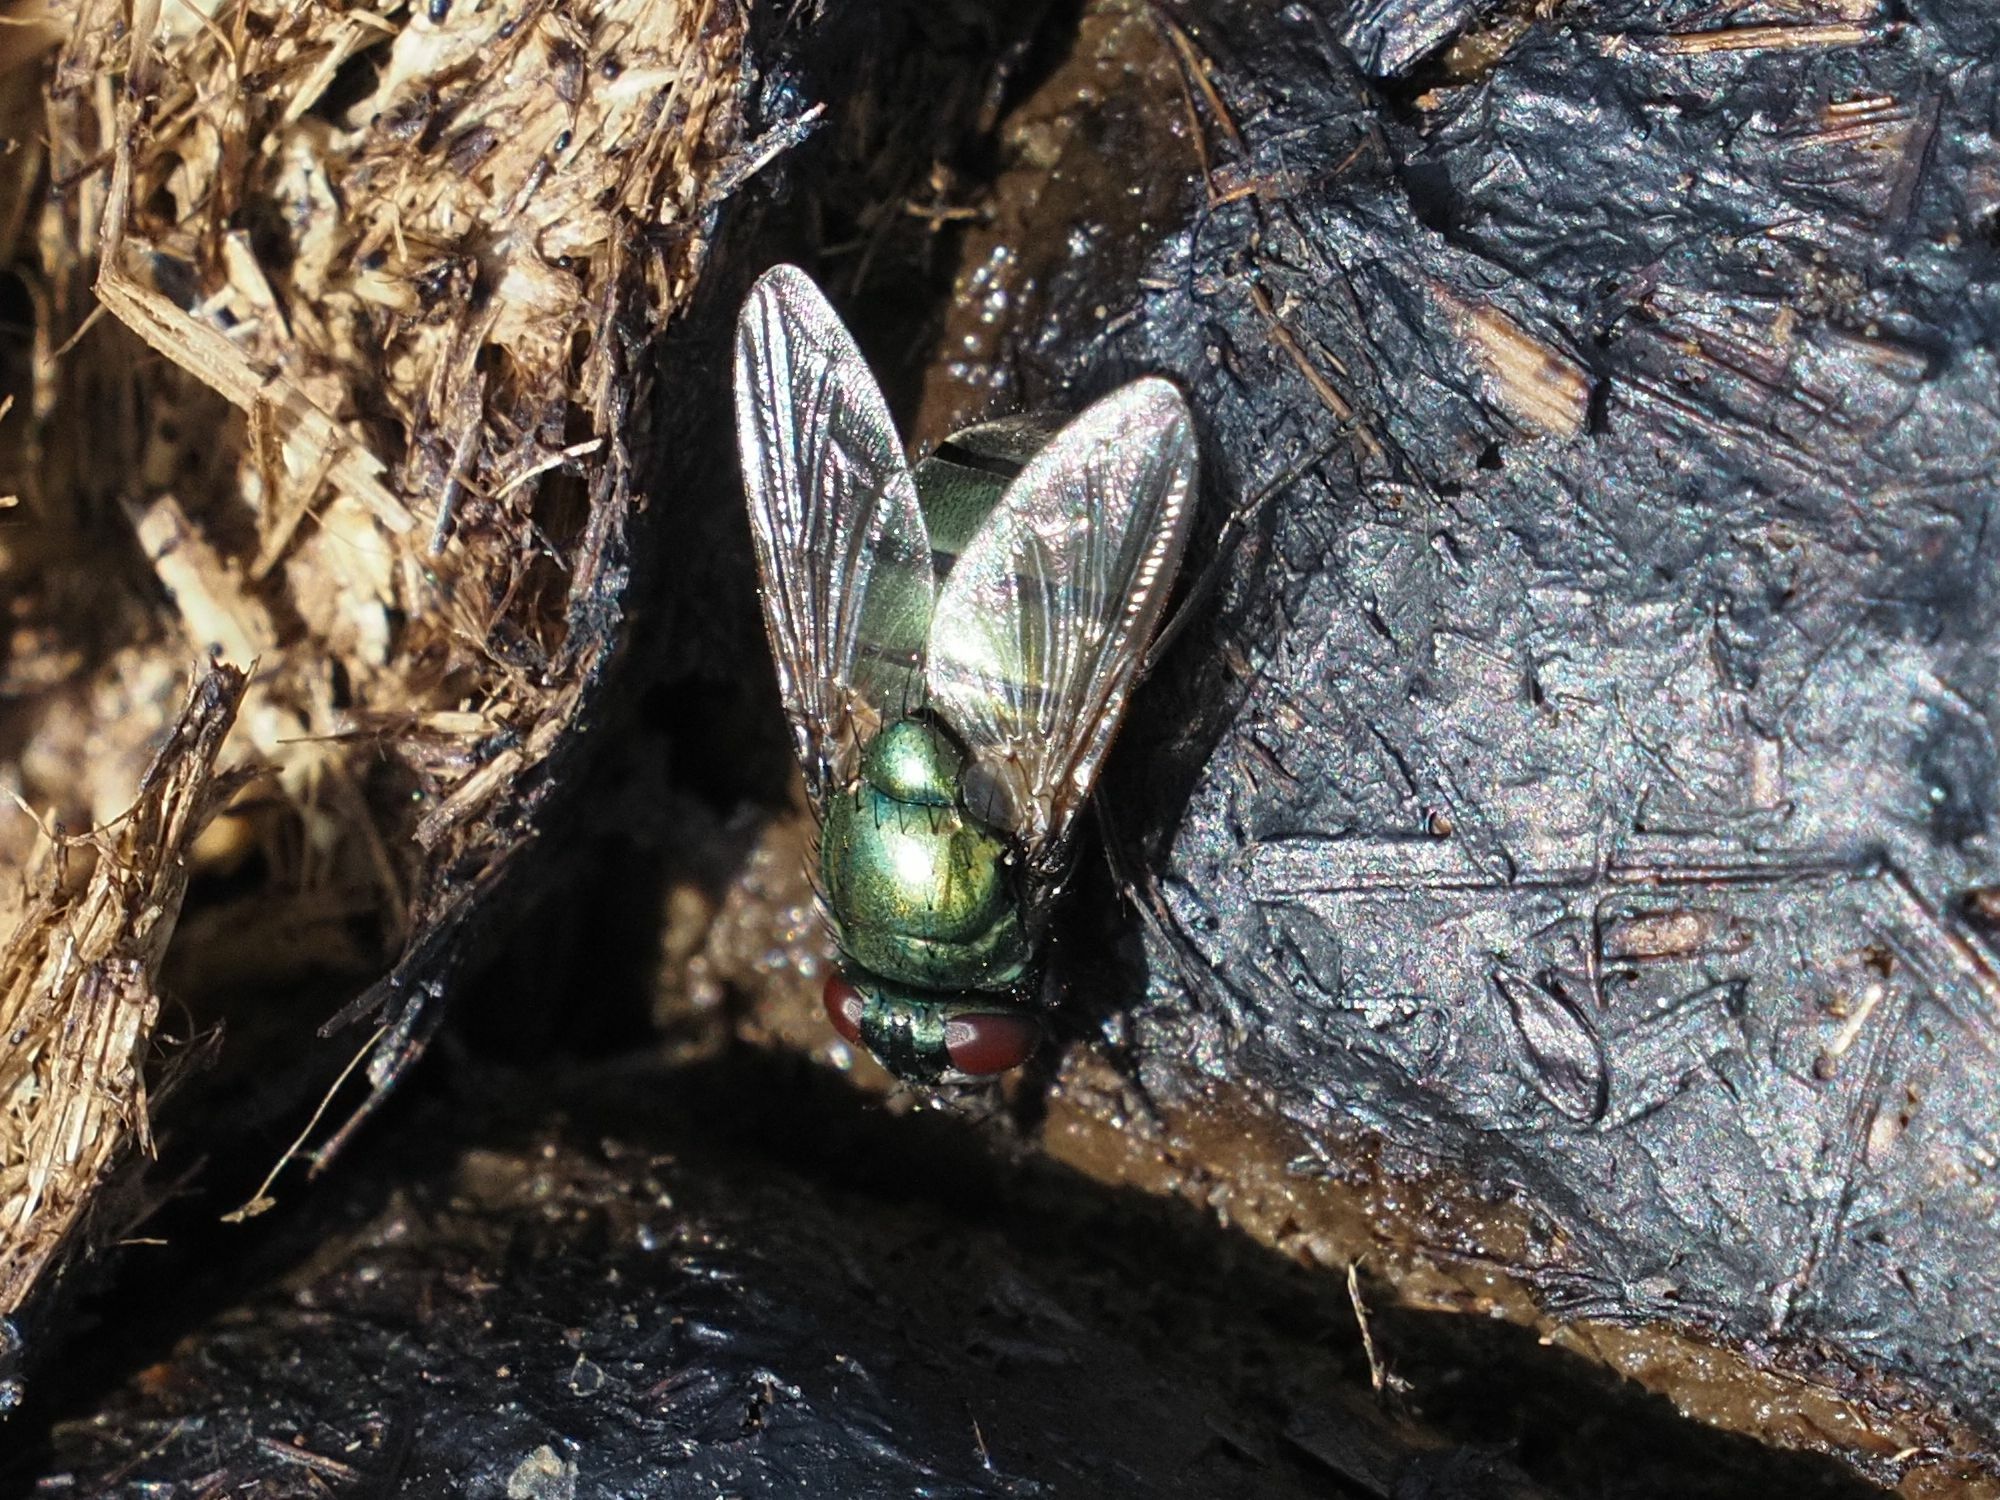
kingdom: Animalia
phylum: Arthropoda
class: Insecta
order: Diptera
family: Muscidae
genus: Neomyia
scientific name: Neomyia cornicina
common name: House fly
